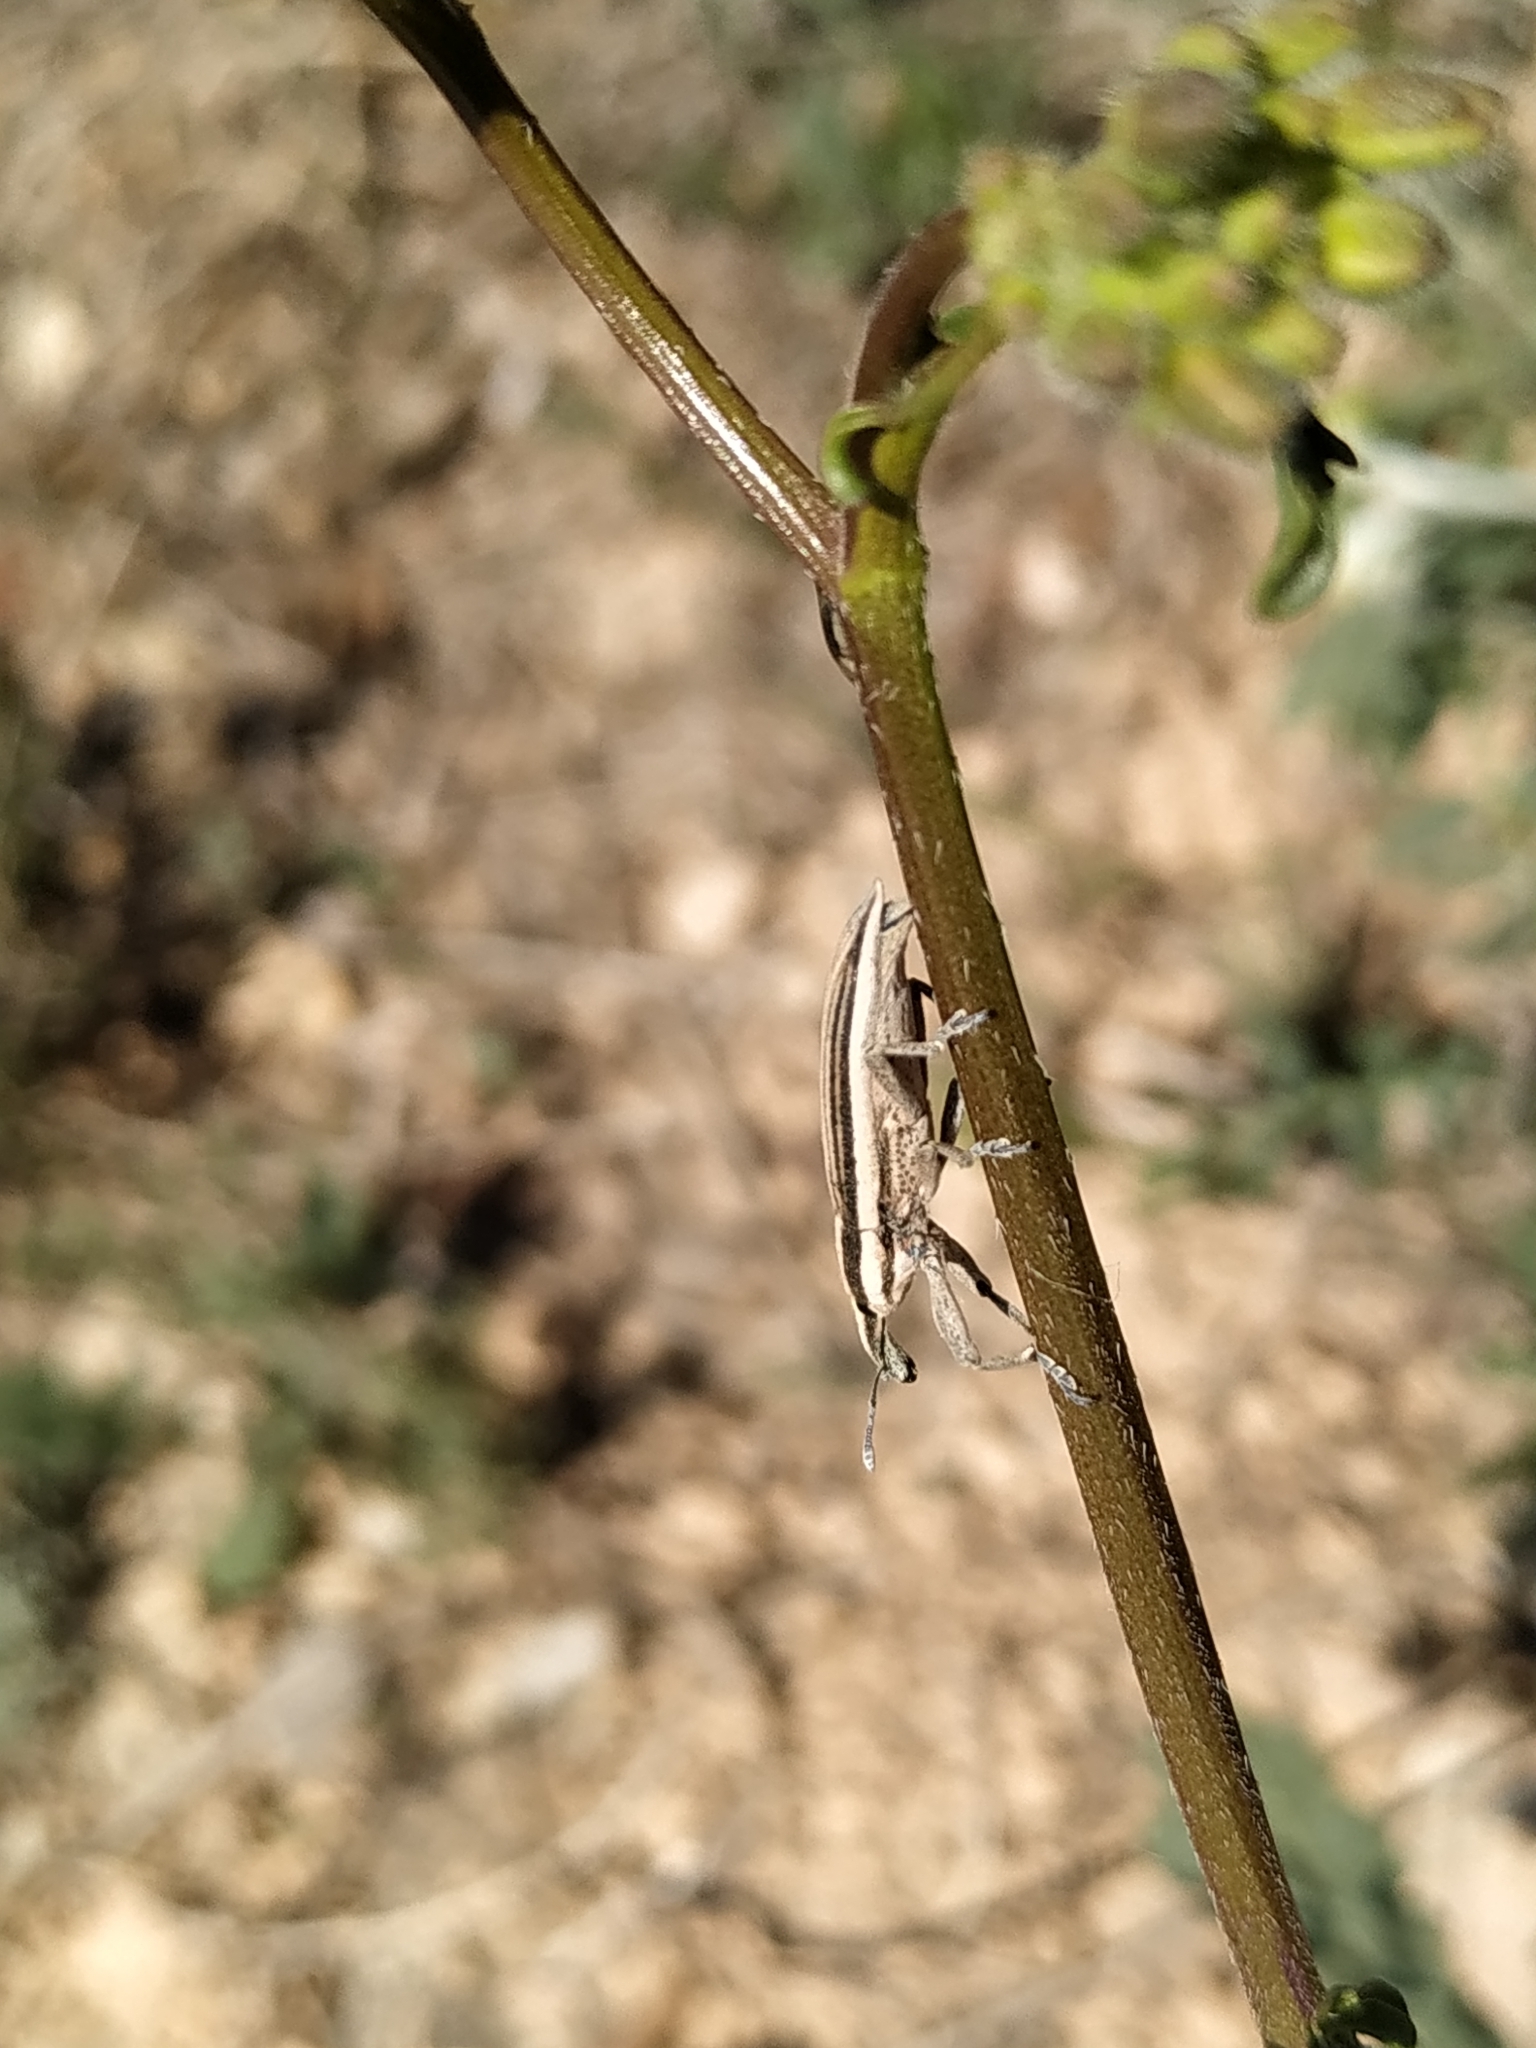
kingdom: Animalia
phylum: Arthropoda
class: Insecta
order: Coleoptera
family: Curculionidae
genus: Lixus
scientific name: Lixus anguinus
